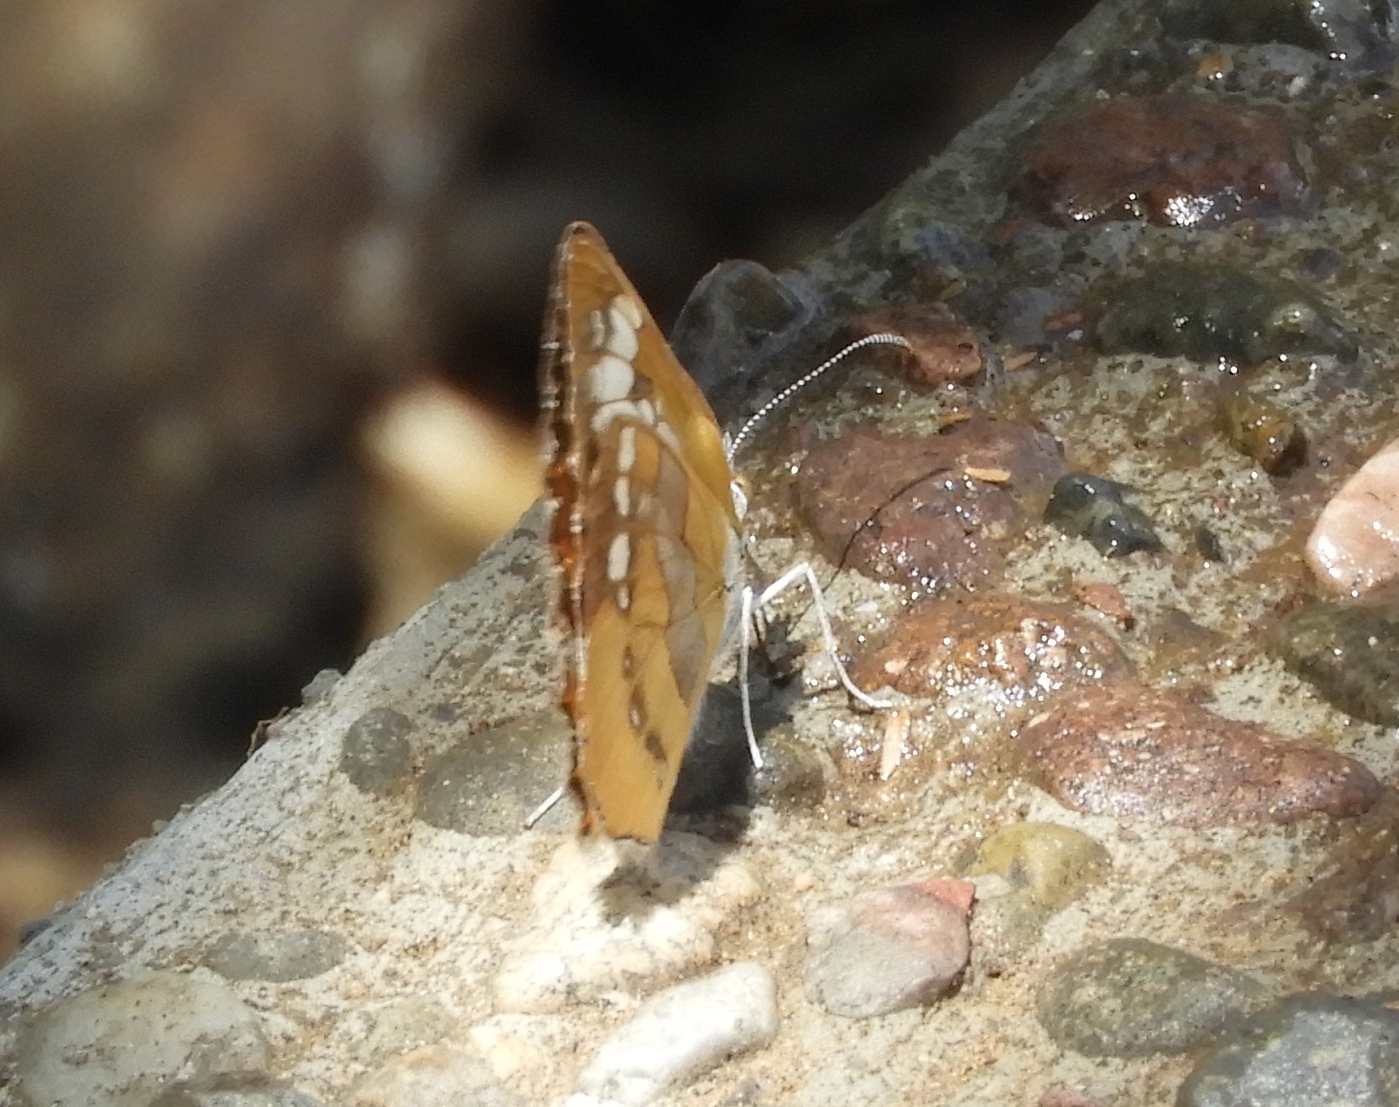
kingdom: Animalia
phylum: Arthropoda
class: Insecta
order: Lepidoptera
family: Nymphalidae
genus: Mestra
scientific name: Mestra amymone
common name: Common mestra
